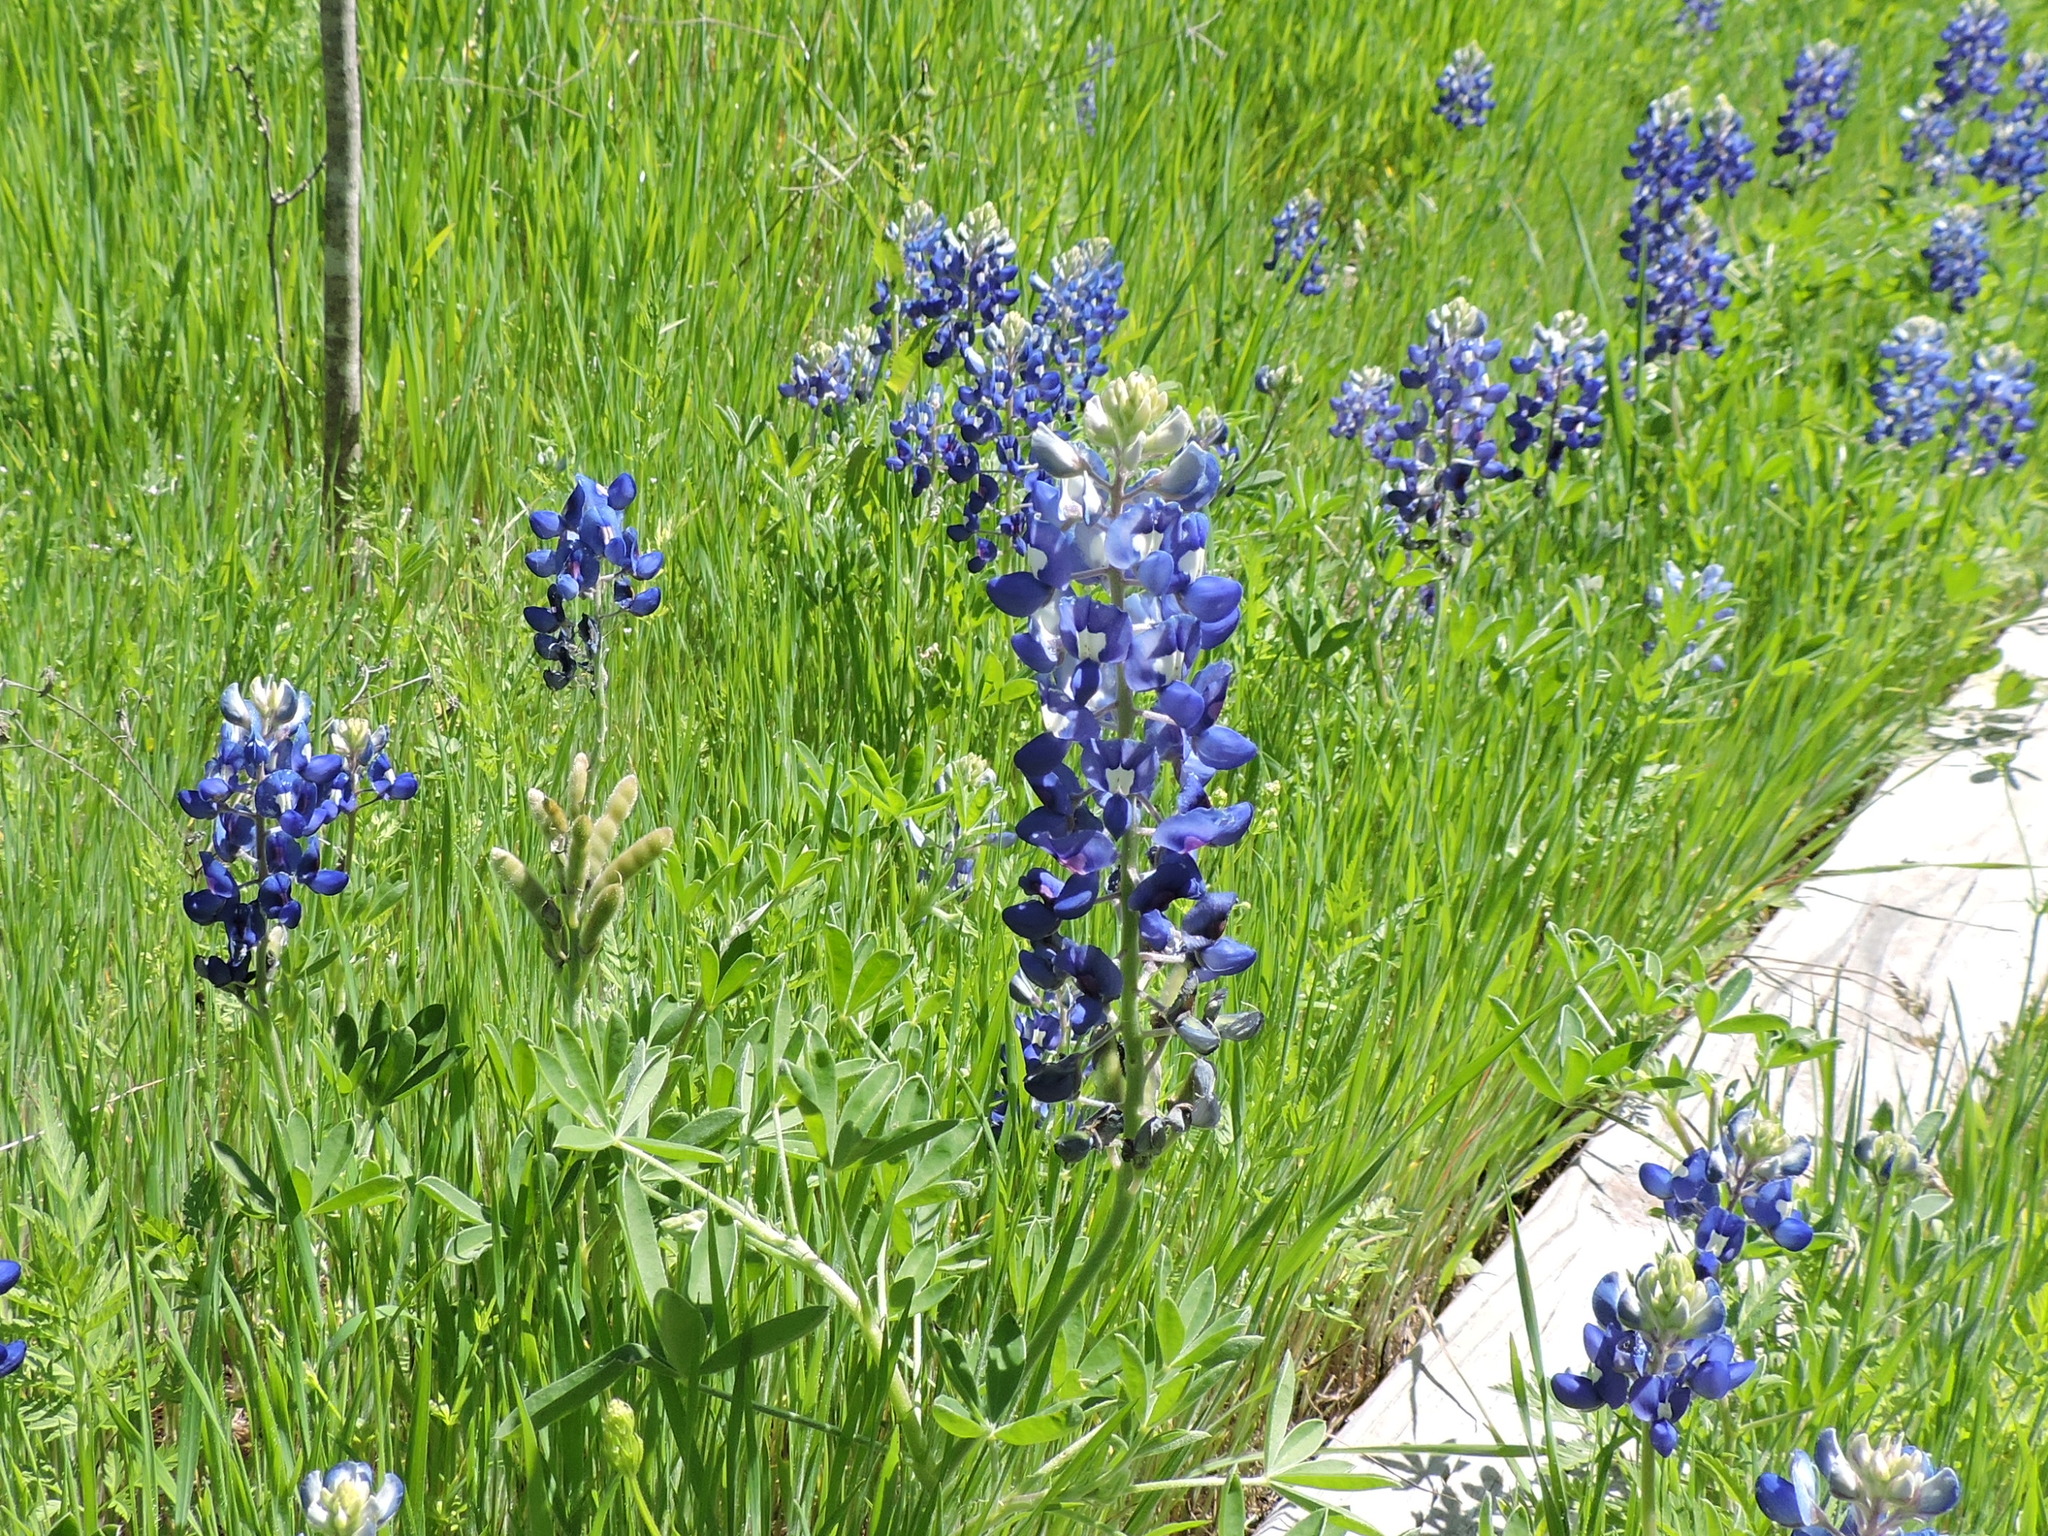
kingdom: Plantae
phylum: Tracheophyta
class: Magnoliopsida
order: Fabales
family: Fabaceae
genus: Lupinus
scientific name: Lupinus texensis
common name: Texas bluebonnet
